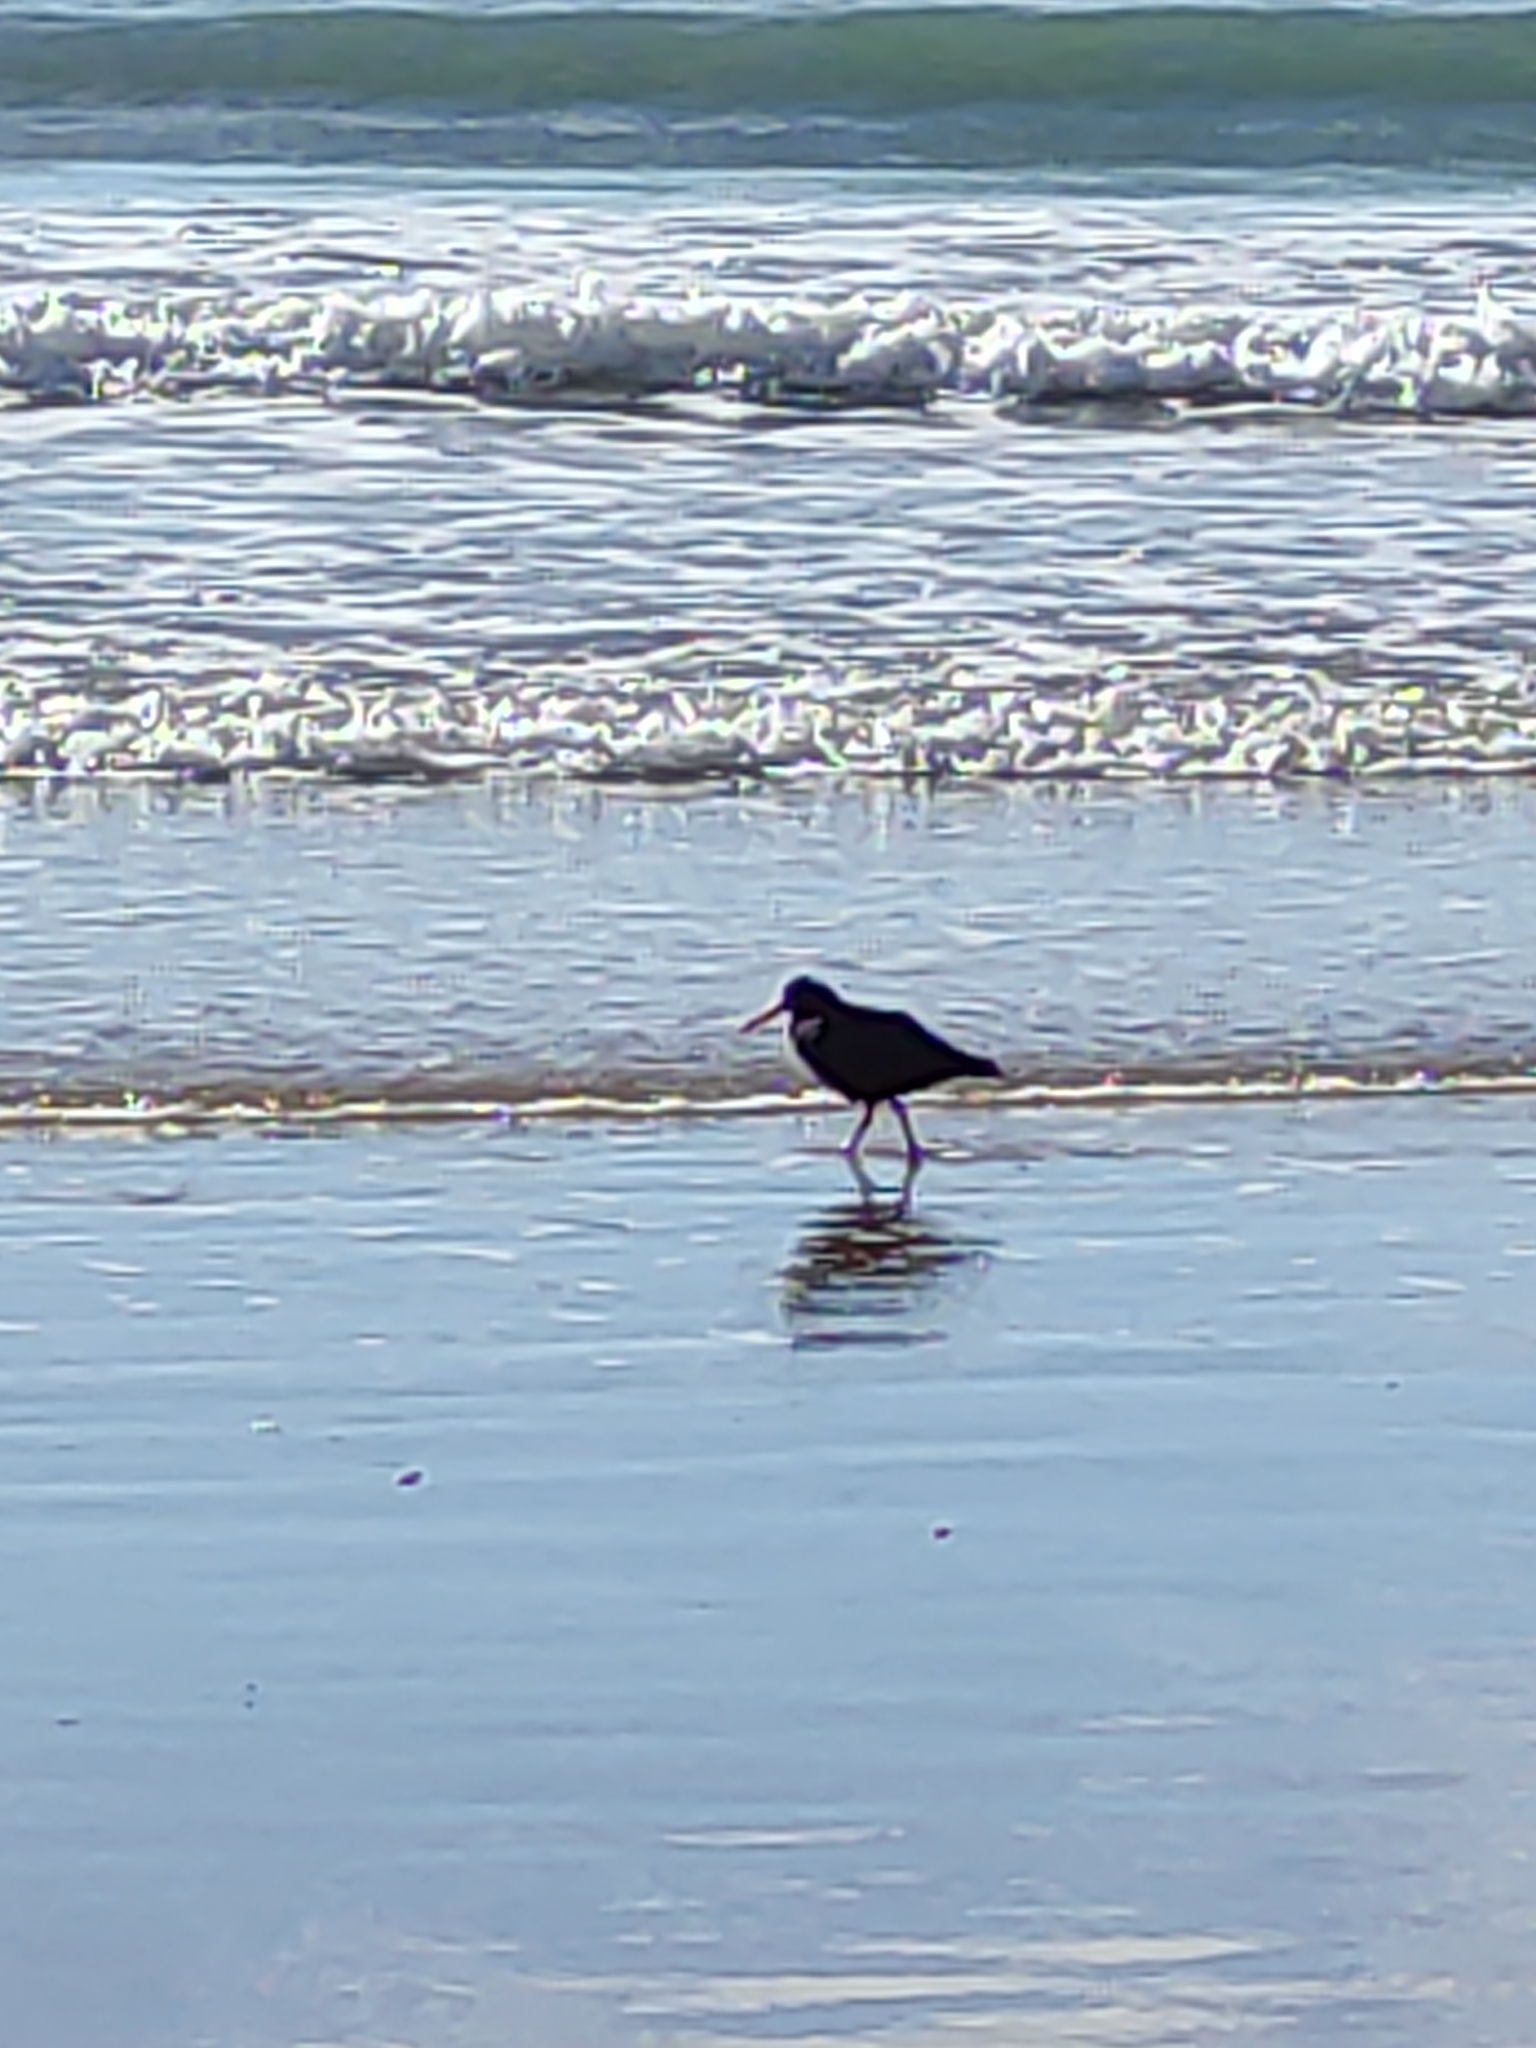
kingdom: Animalia
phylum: Chordata
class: Aves
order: Charadriiformes
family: Haematopodidae
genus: Haematopus
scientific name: Haematopus unicolor
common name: Variable oystercatcher
